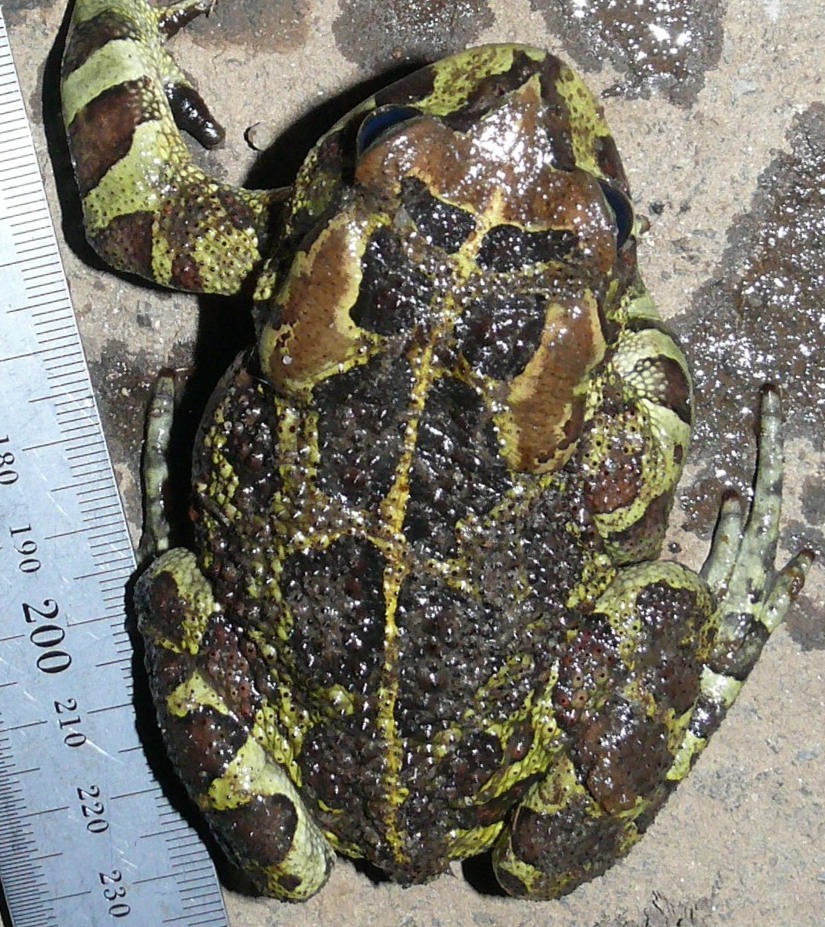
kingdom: Animalia
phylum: Chordata
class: Amphibia
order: Anura
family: Bufonidae
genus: Sclerophrys
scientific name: Sclerophrys pantherina
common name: Panther toad
